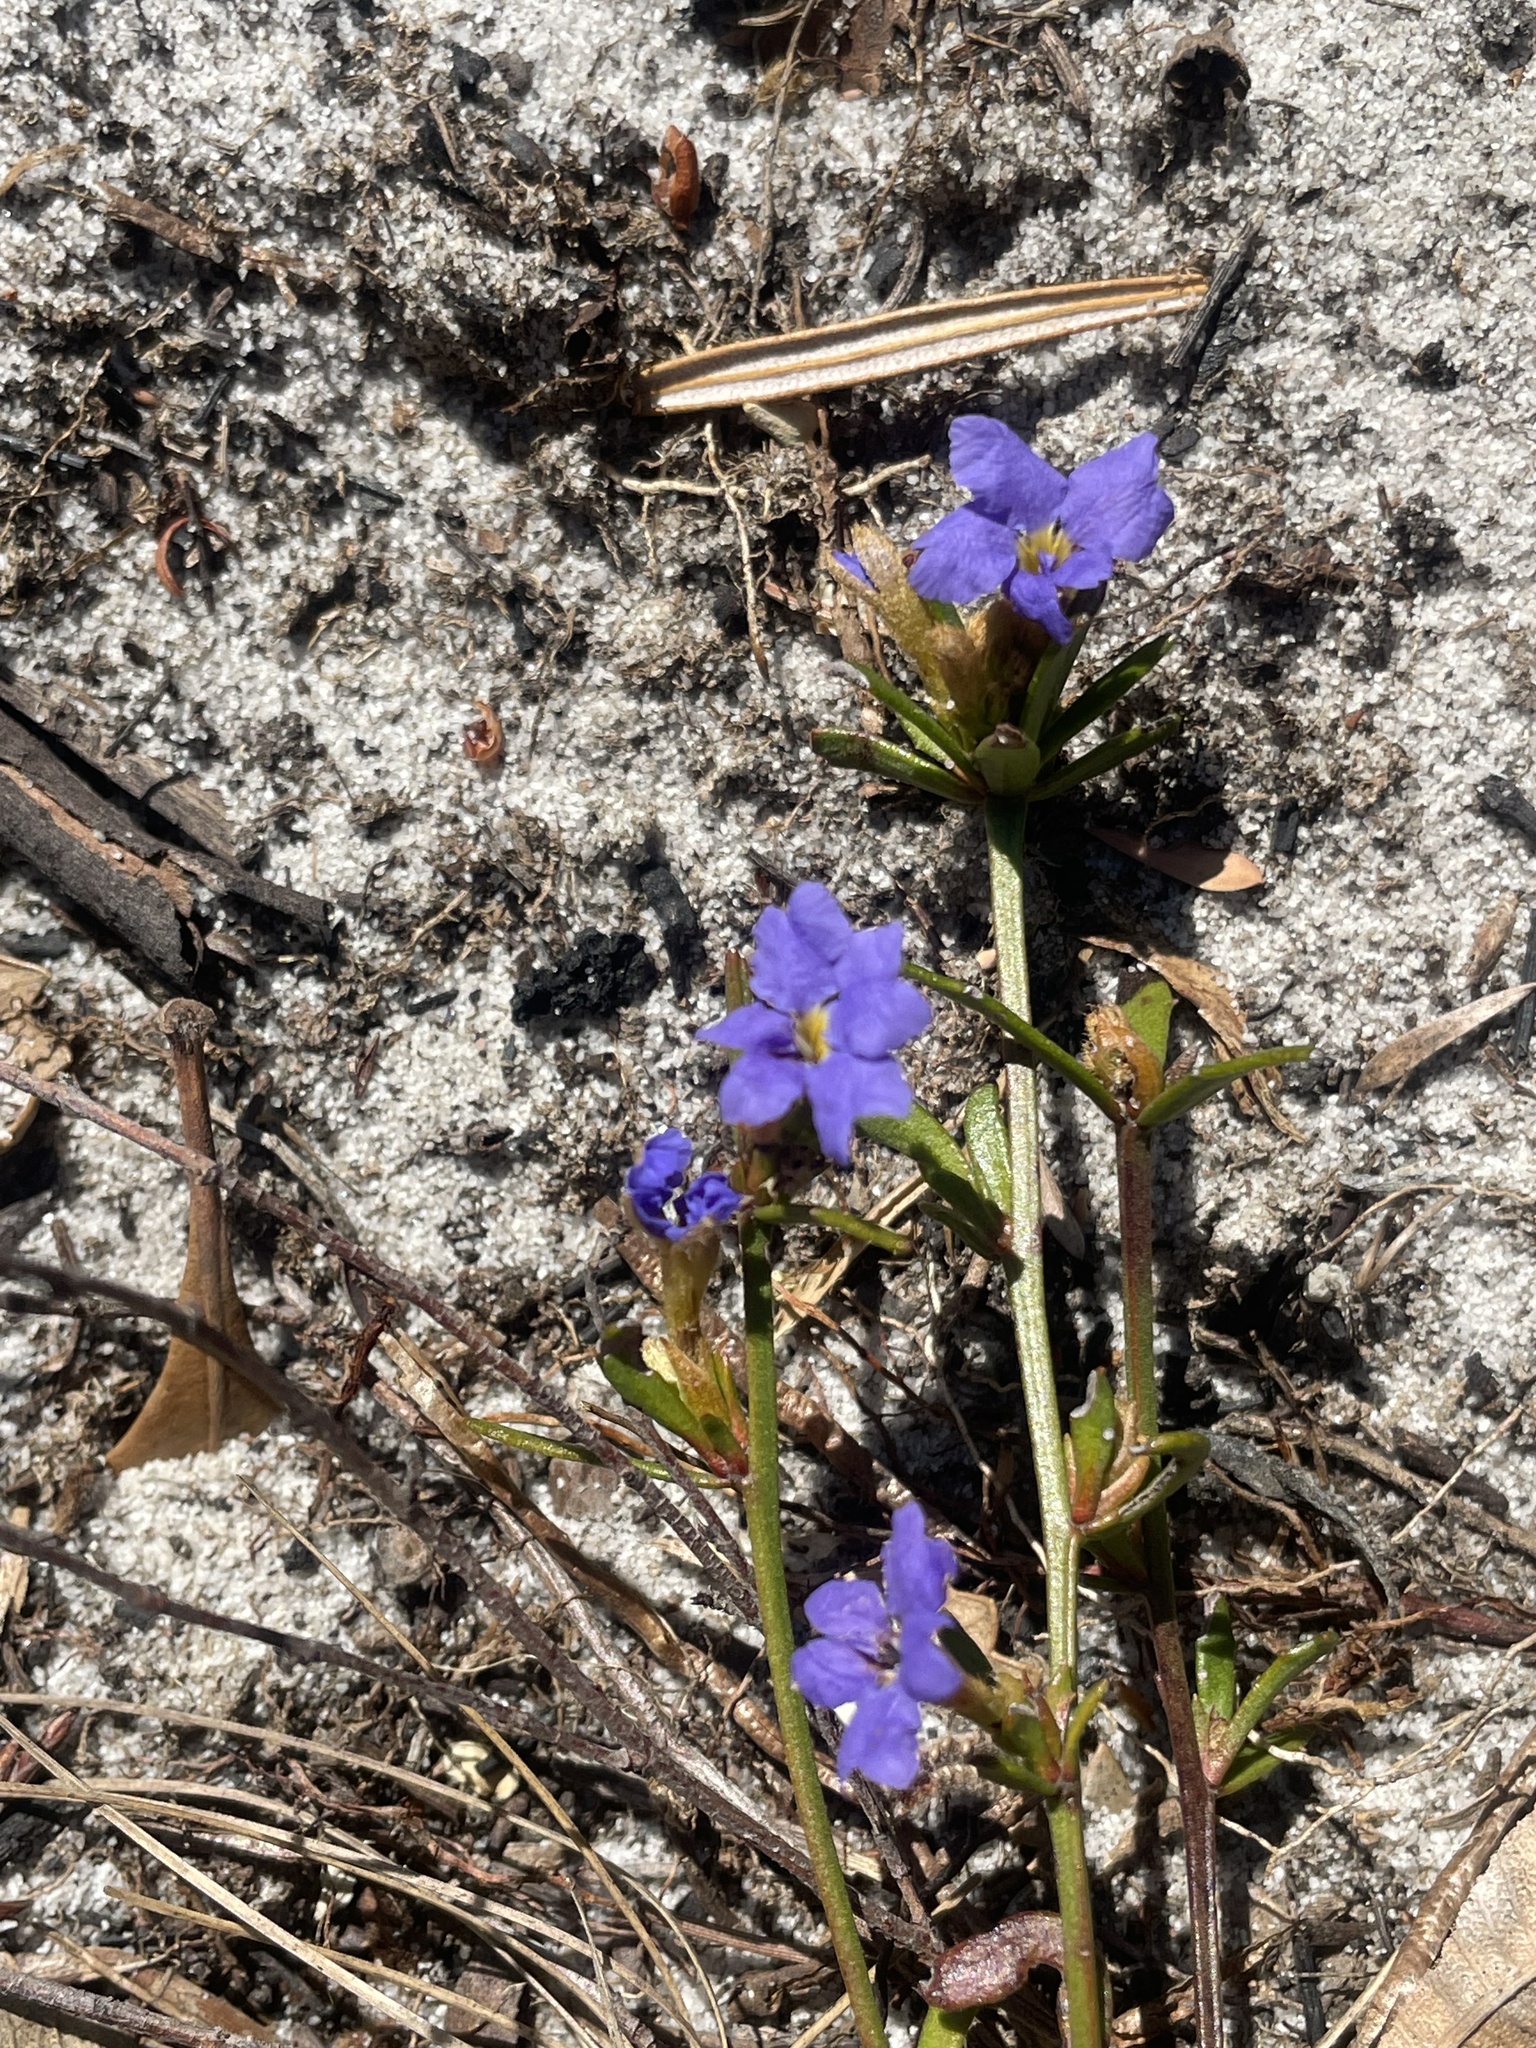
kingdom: Plantae
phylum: Tracheophyta
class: Magnoliopsida
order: Asterales
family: Goodeniaceae
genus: Dampiera
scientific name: Dampiera stricta
